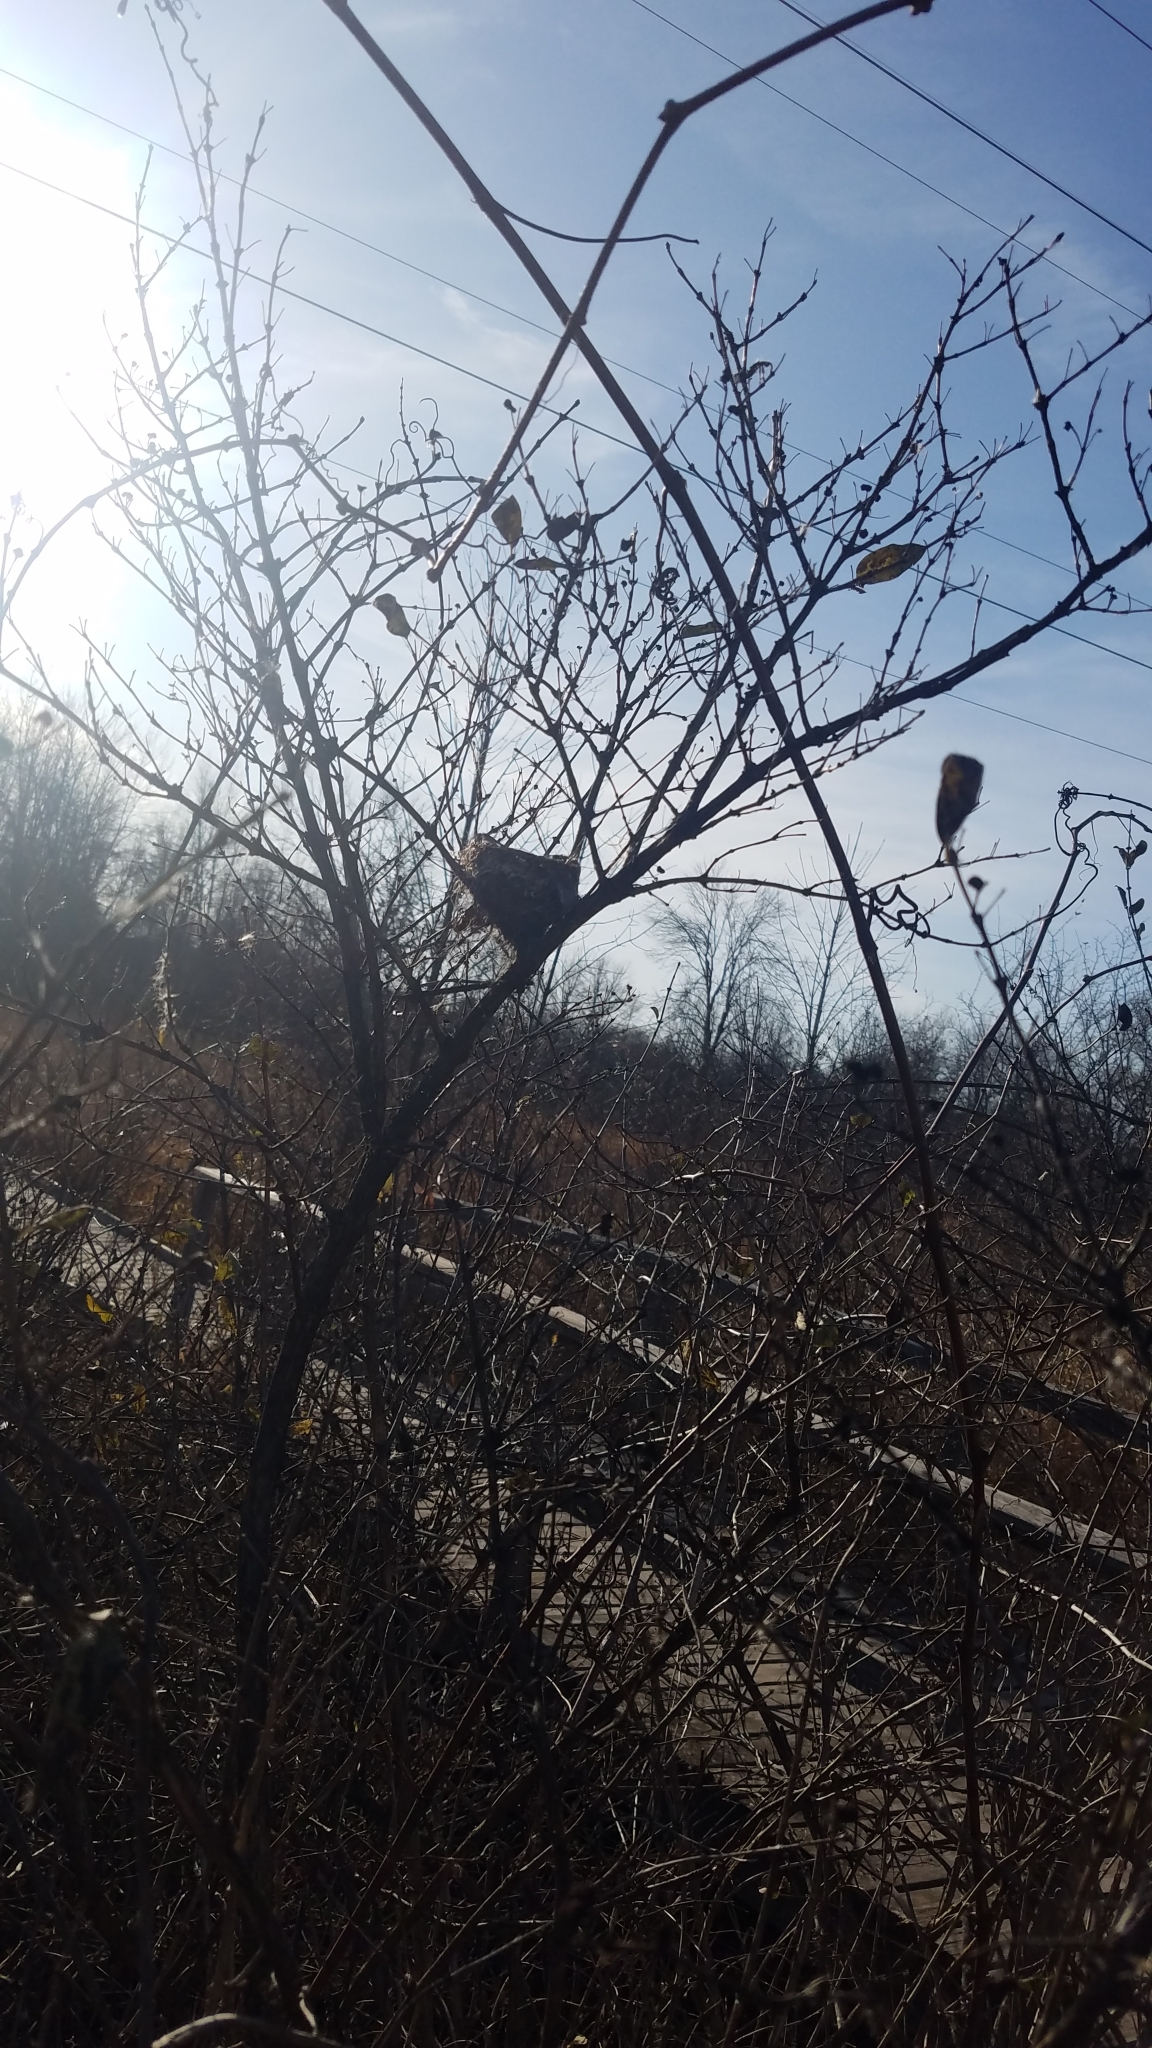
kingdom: Animalia
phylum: Chordata
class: Aves
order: Passeriformes
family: Turdidae
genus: Turdus
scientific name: Turdus migratorius
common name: American robin
